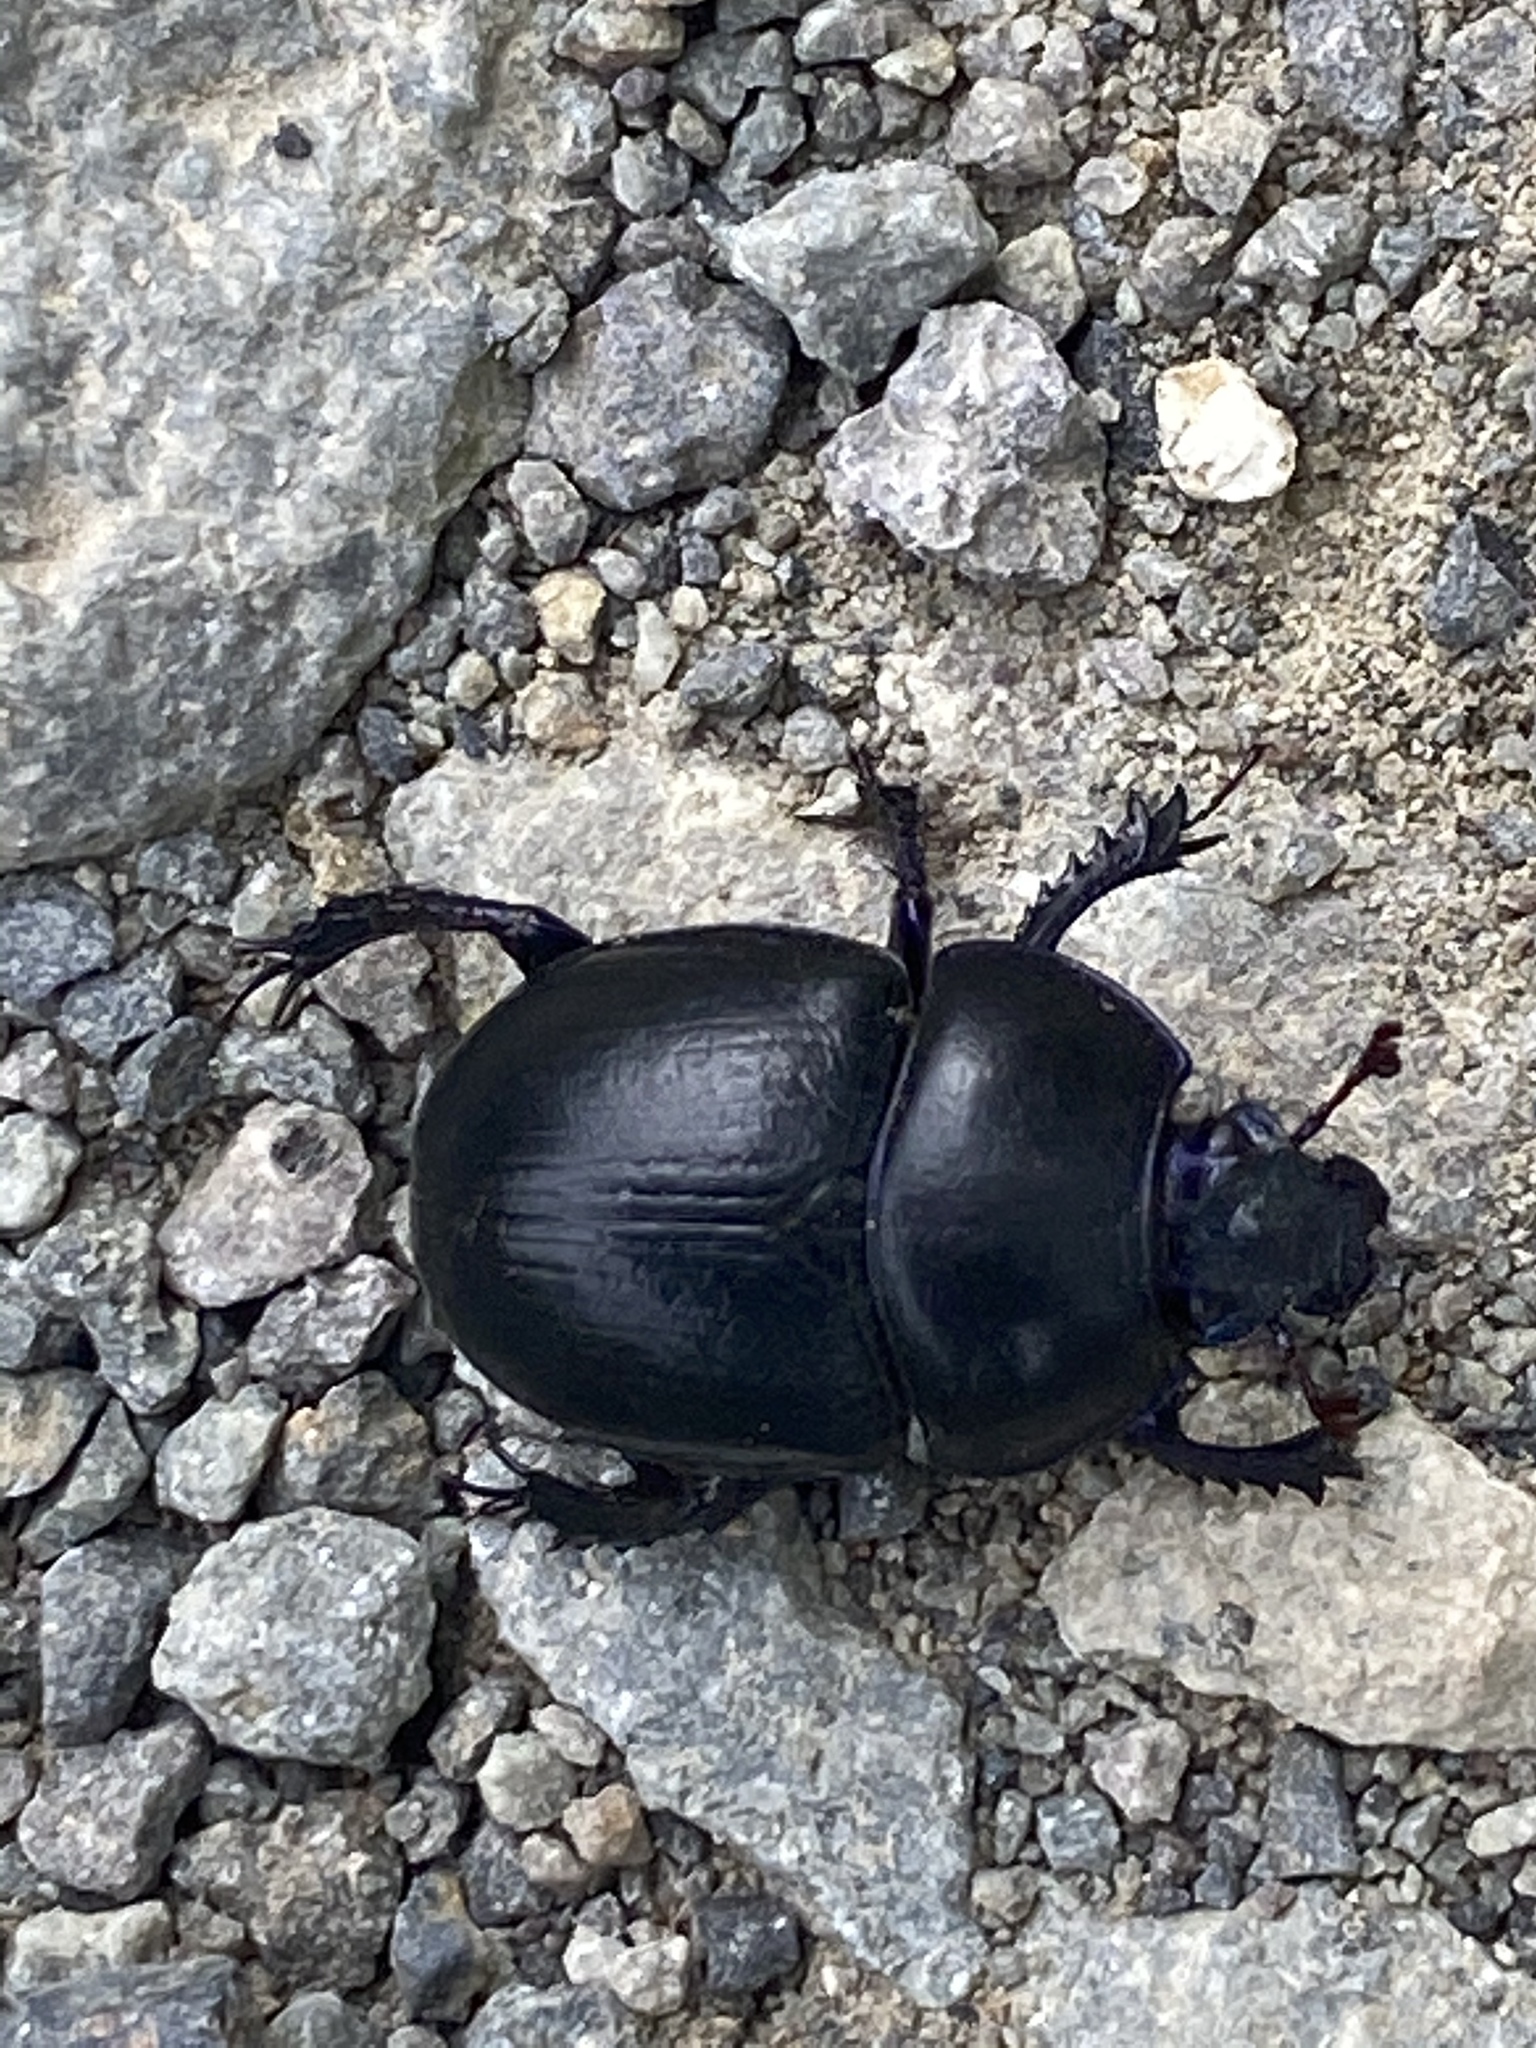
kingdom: Animalia
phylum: Arthropoda
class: Insecta
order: Coleoptera
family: Geotrupidae
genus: Anoplotrupes
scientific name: Anoplotrupes stercorosus
